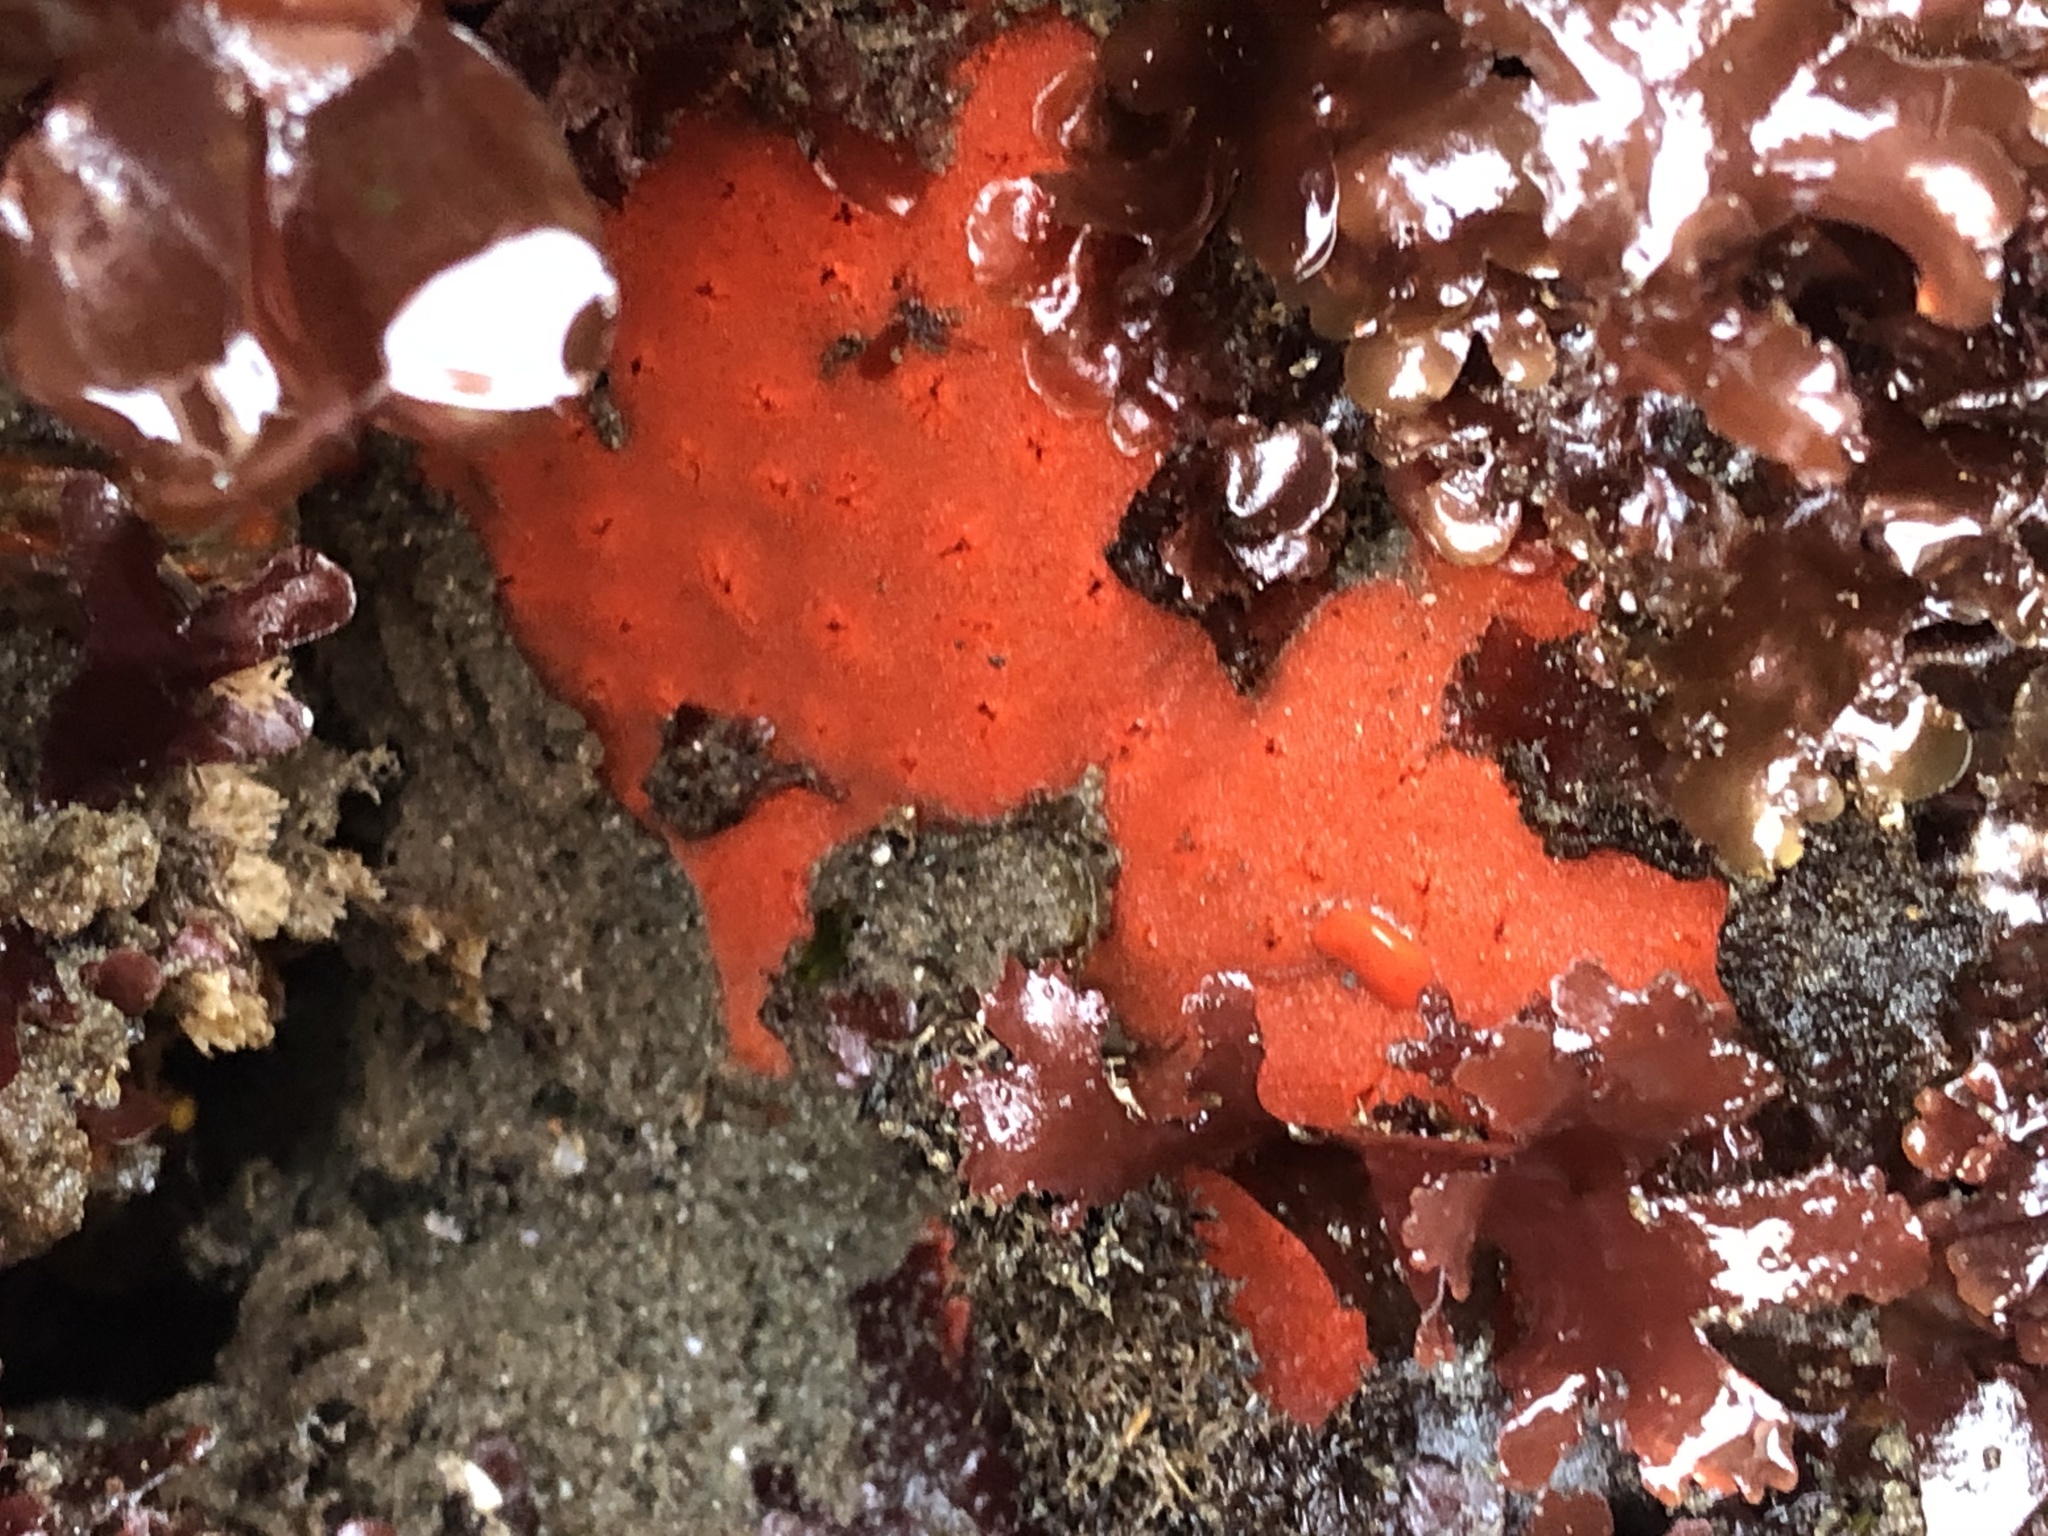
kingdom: Animalia
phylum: Mollusca
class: Gastropoda
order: Nudibranchia
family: Discodorididae
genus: Rostanga
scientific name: Rostanga pulchra
